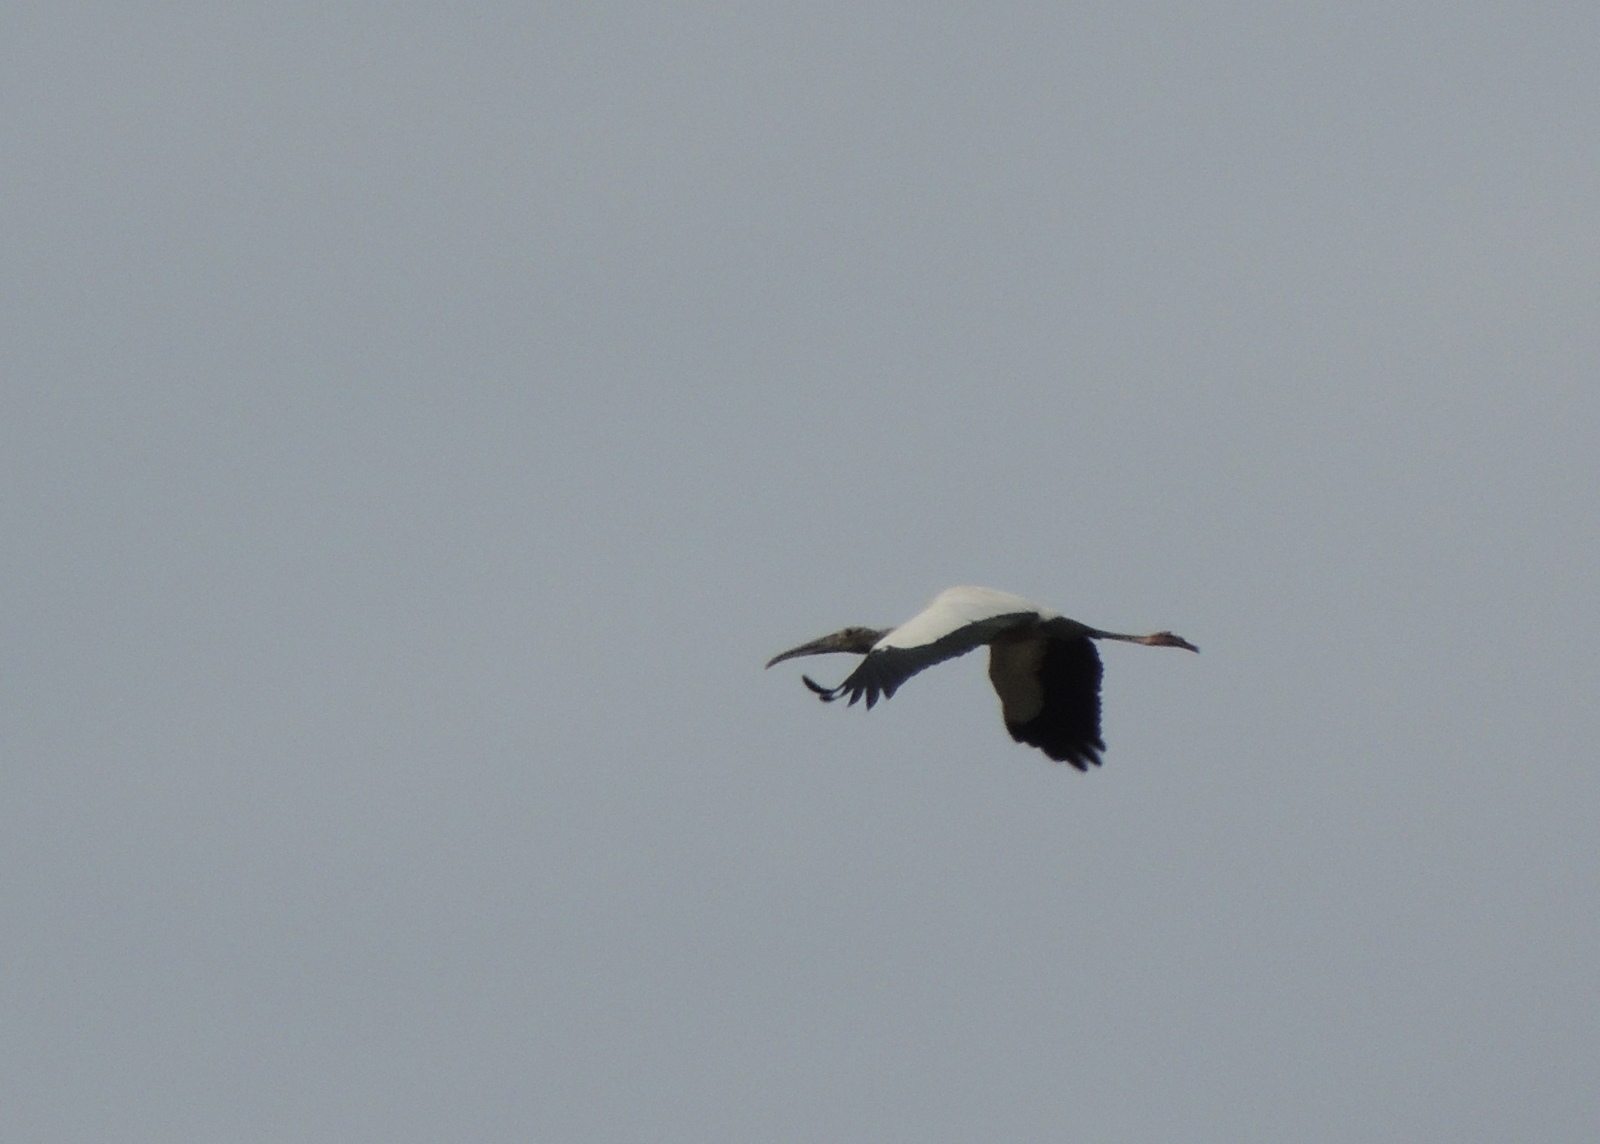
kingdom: Animalia
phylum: Chordata
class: Aves
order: Ciconiiformes
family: Ciconiidae
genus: Mycteria
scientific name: Mycteria americana
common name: Wood stork
